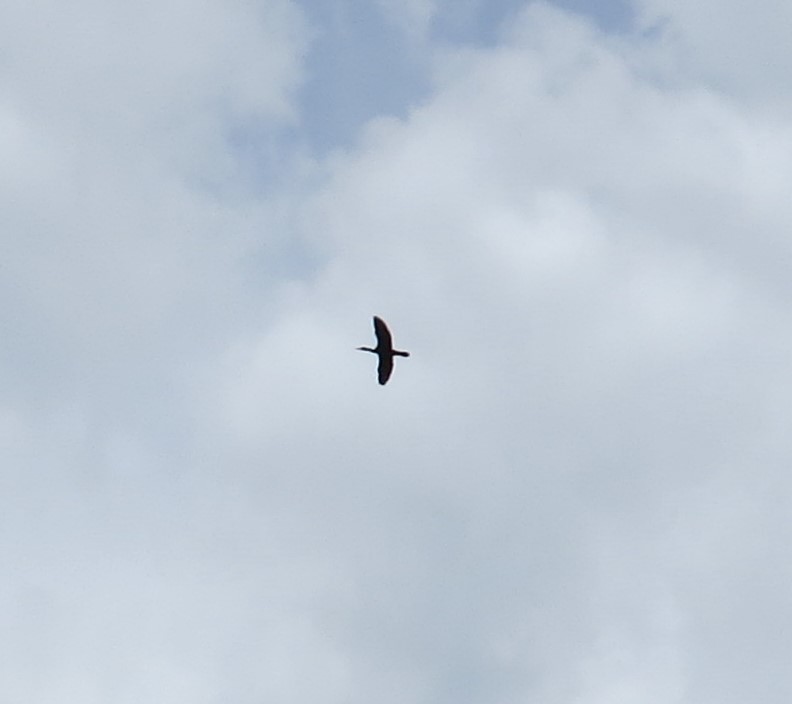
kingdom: Animalia
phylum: Chordata
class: Aves
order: Suliformes
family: Phalacrocoracidae
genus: Phalacrocorax
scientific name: Phalacrocorax auritus
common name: Double-crested cormorant
